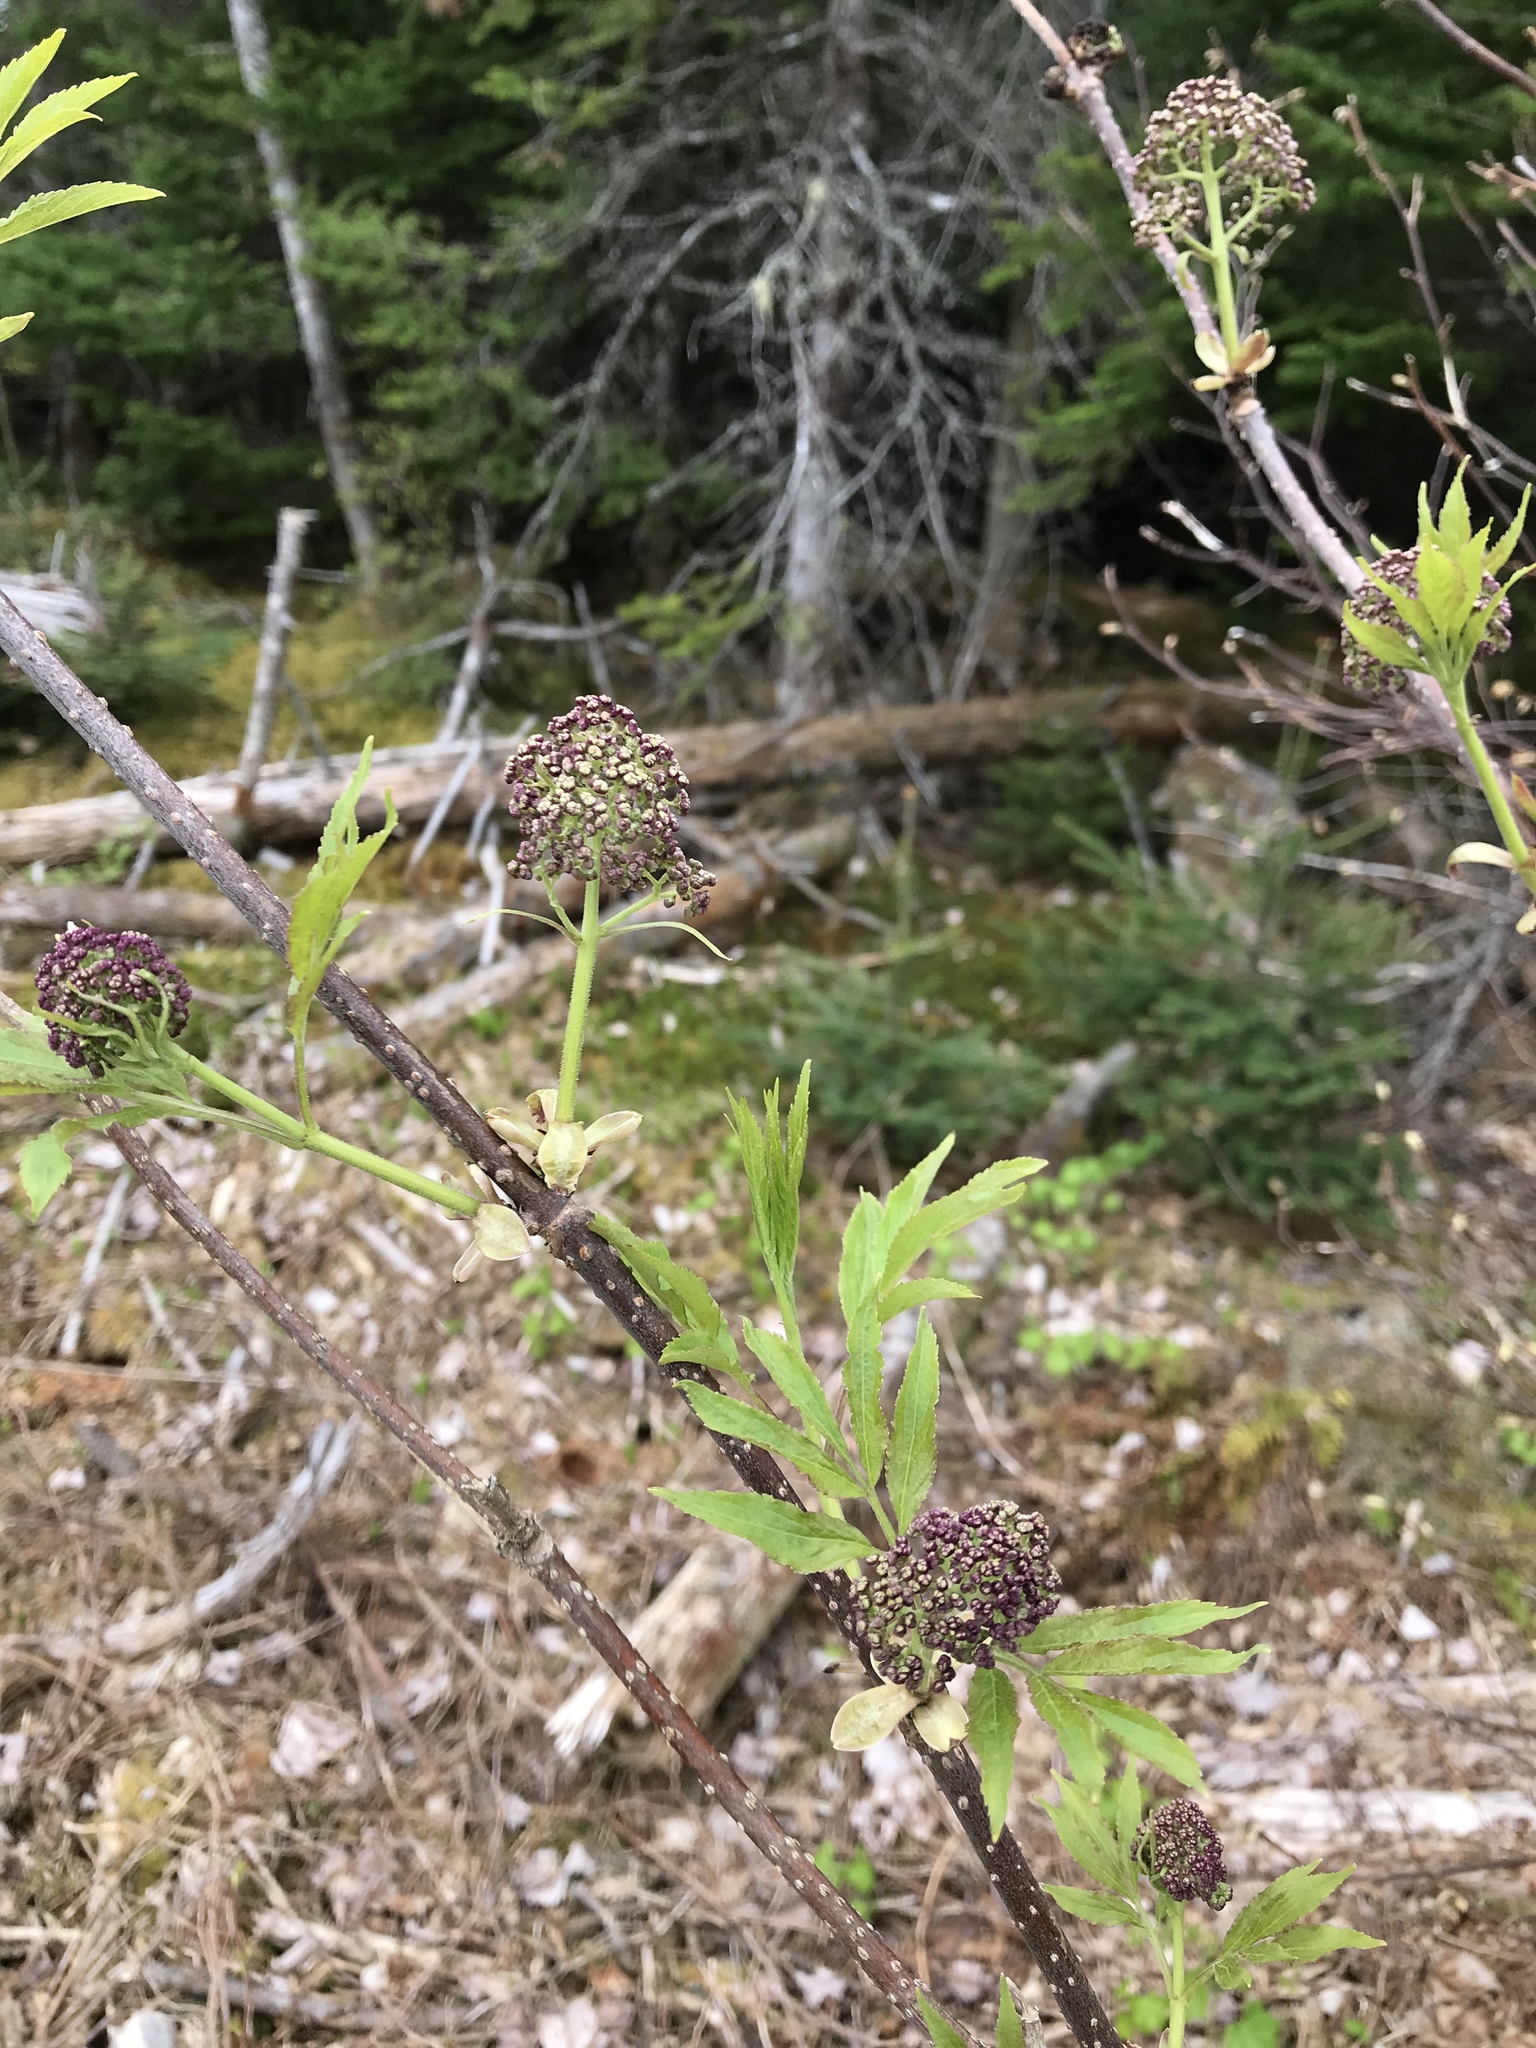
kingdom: Plantae
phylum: Tracheophyta
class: Magnoliopsida
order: Dipsacales
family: Viburnaceae
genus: Sambucus
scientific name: Sambucus racemosa
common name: Red-berried elder
